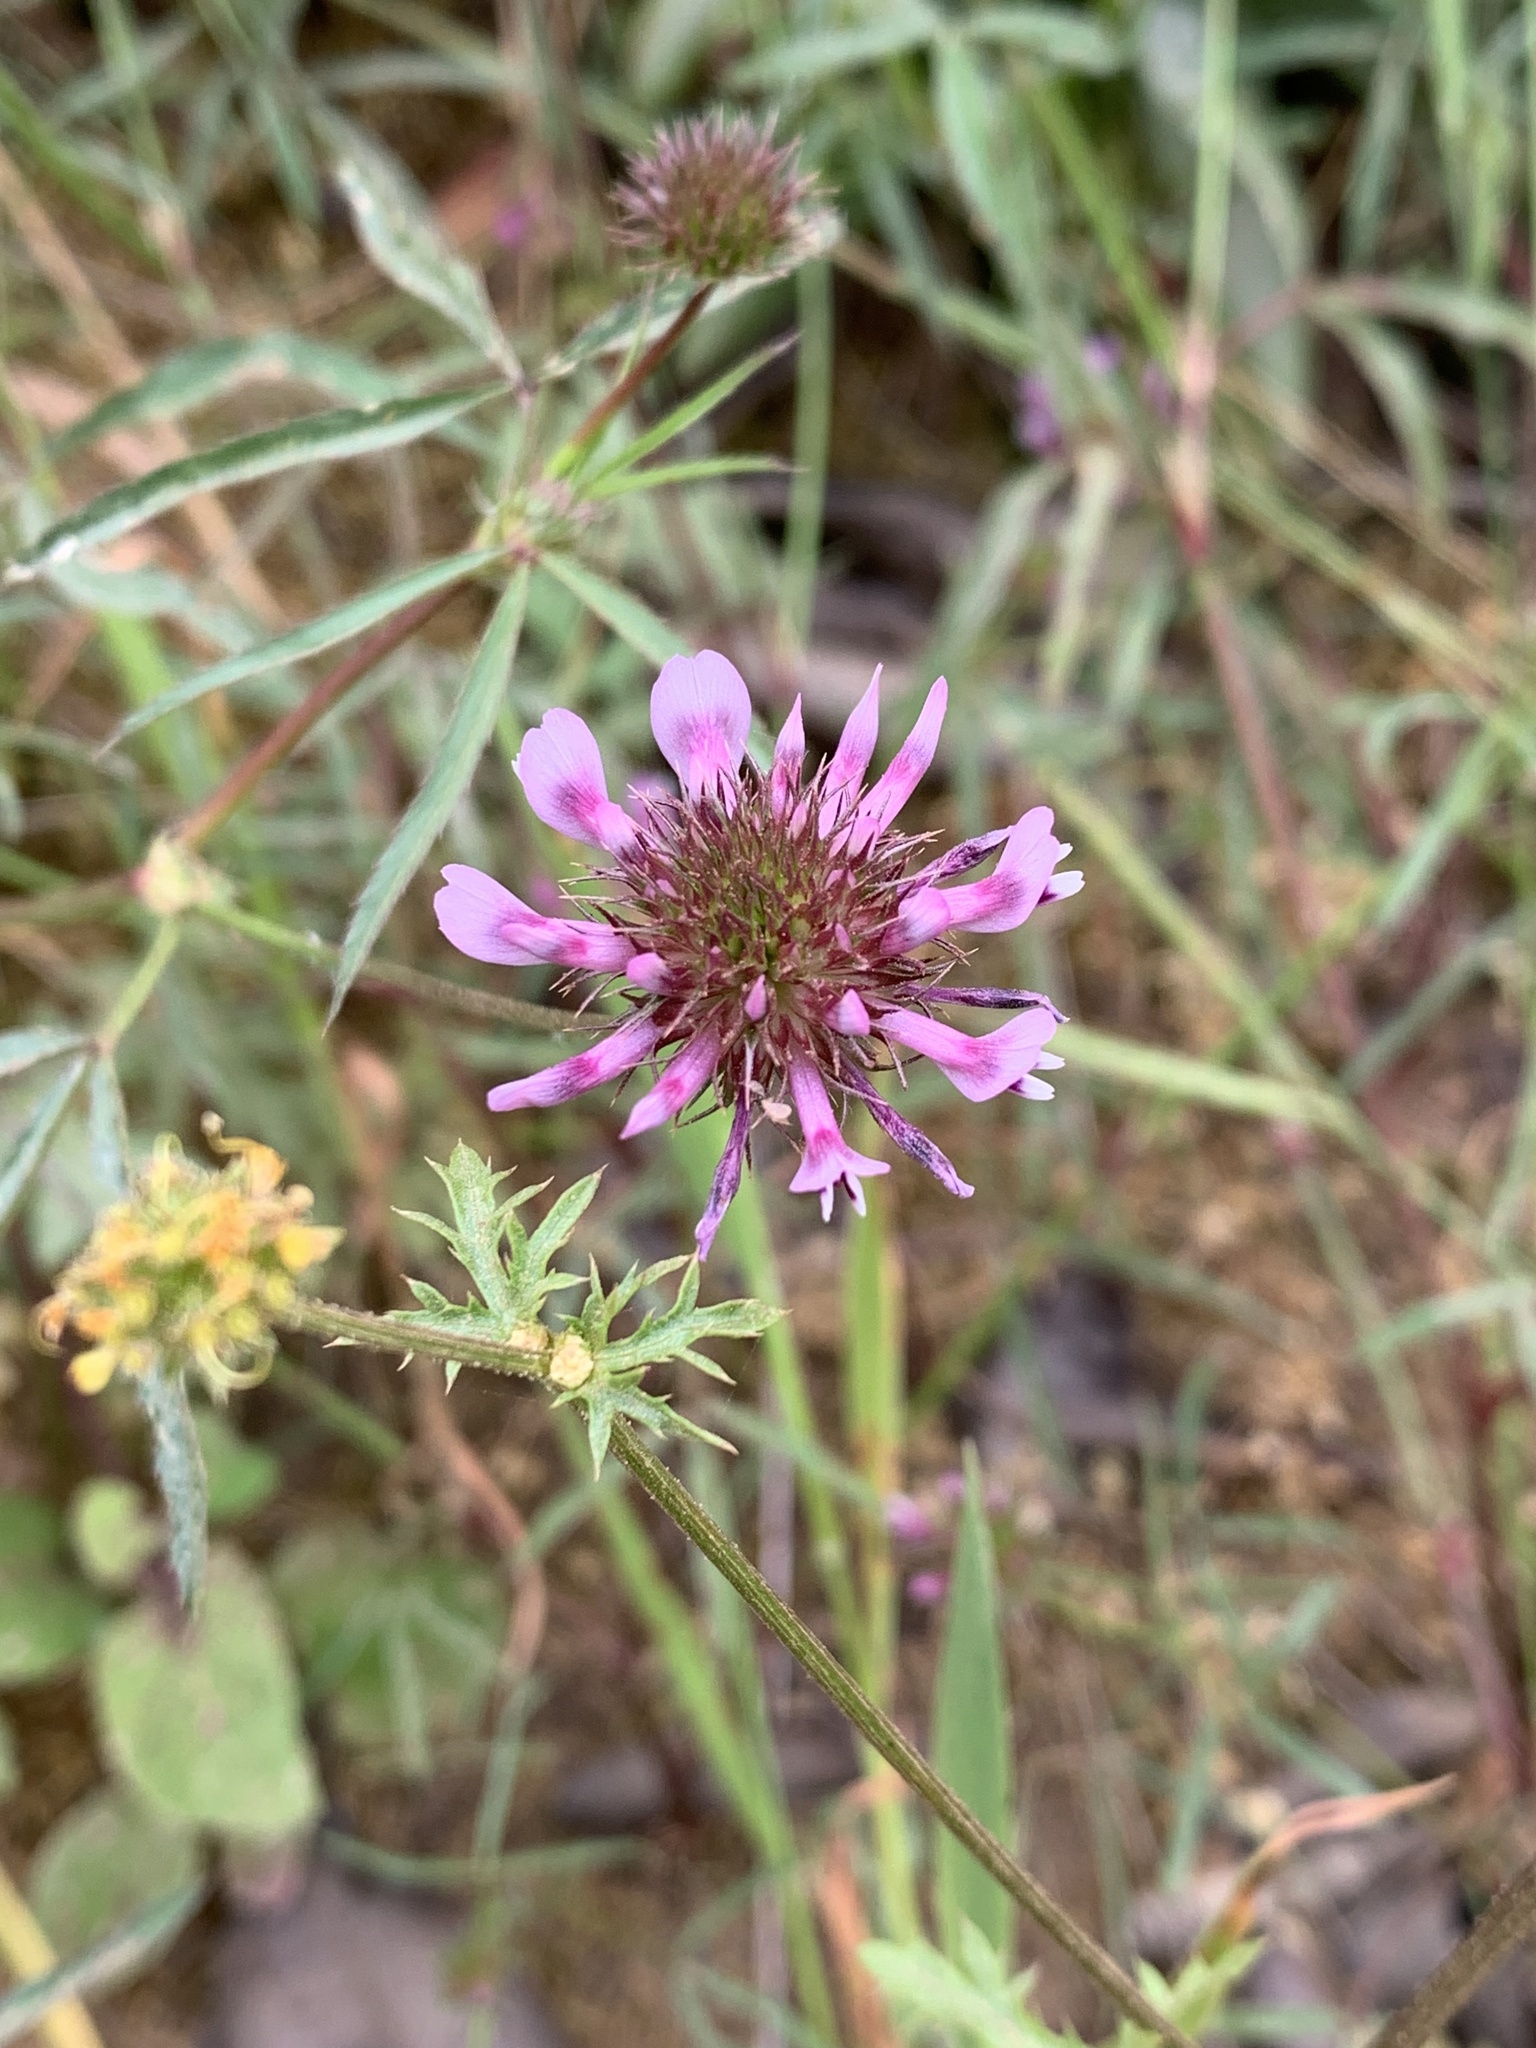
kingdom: Plantae
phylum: Tracheophyta
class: Magnoliopsida
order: Fabales
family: Fabaceae
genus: Trifolium
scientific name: Trifolium willdenovii
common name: Tomcat clover
